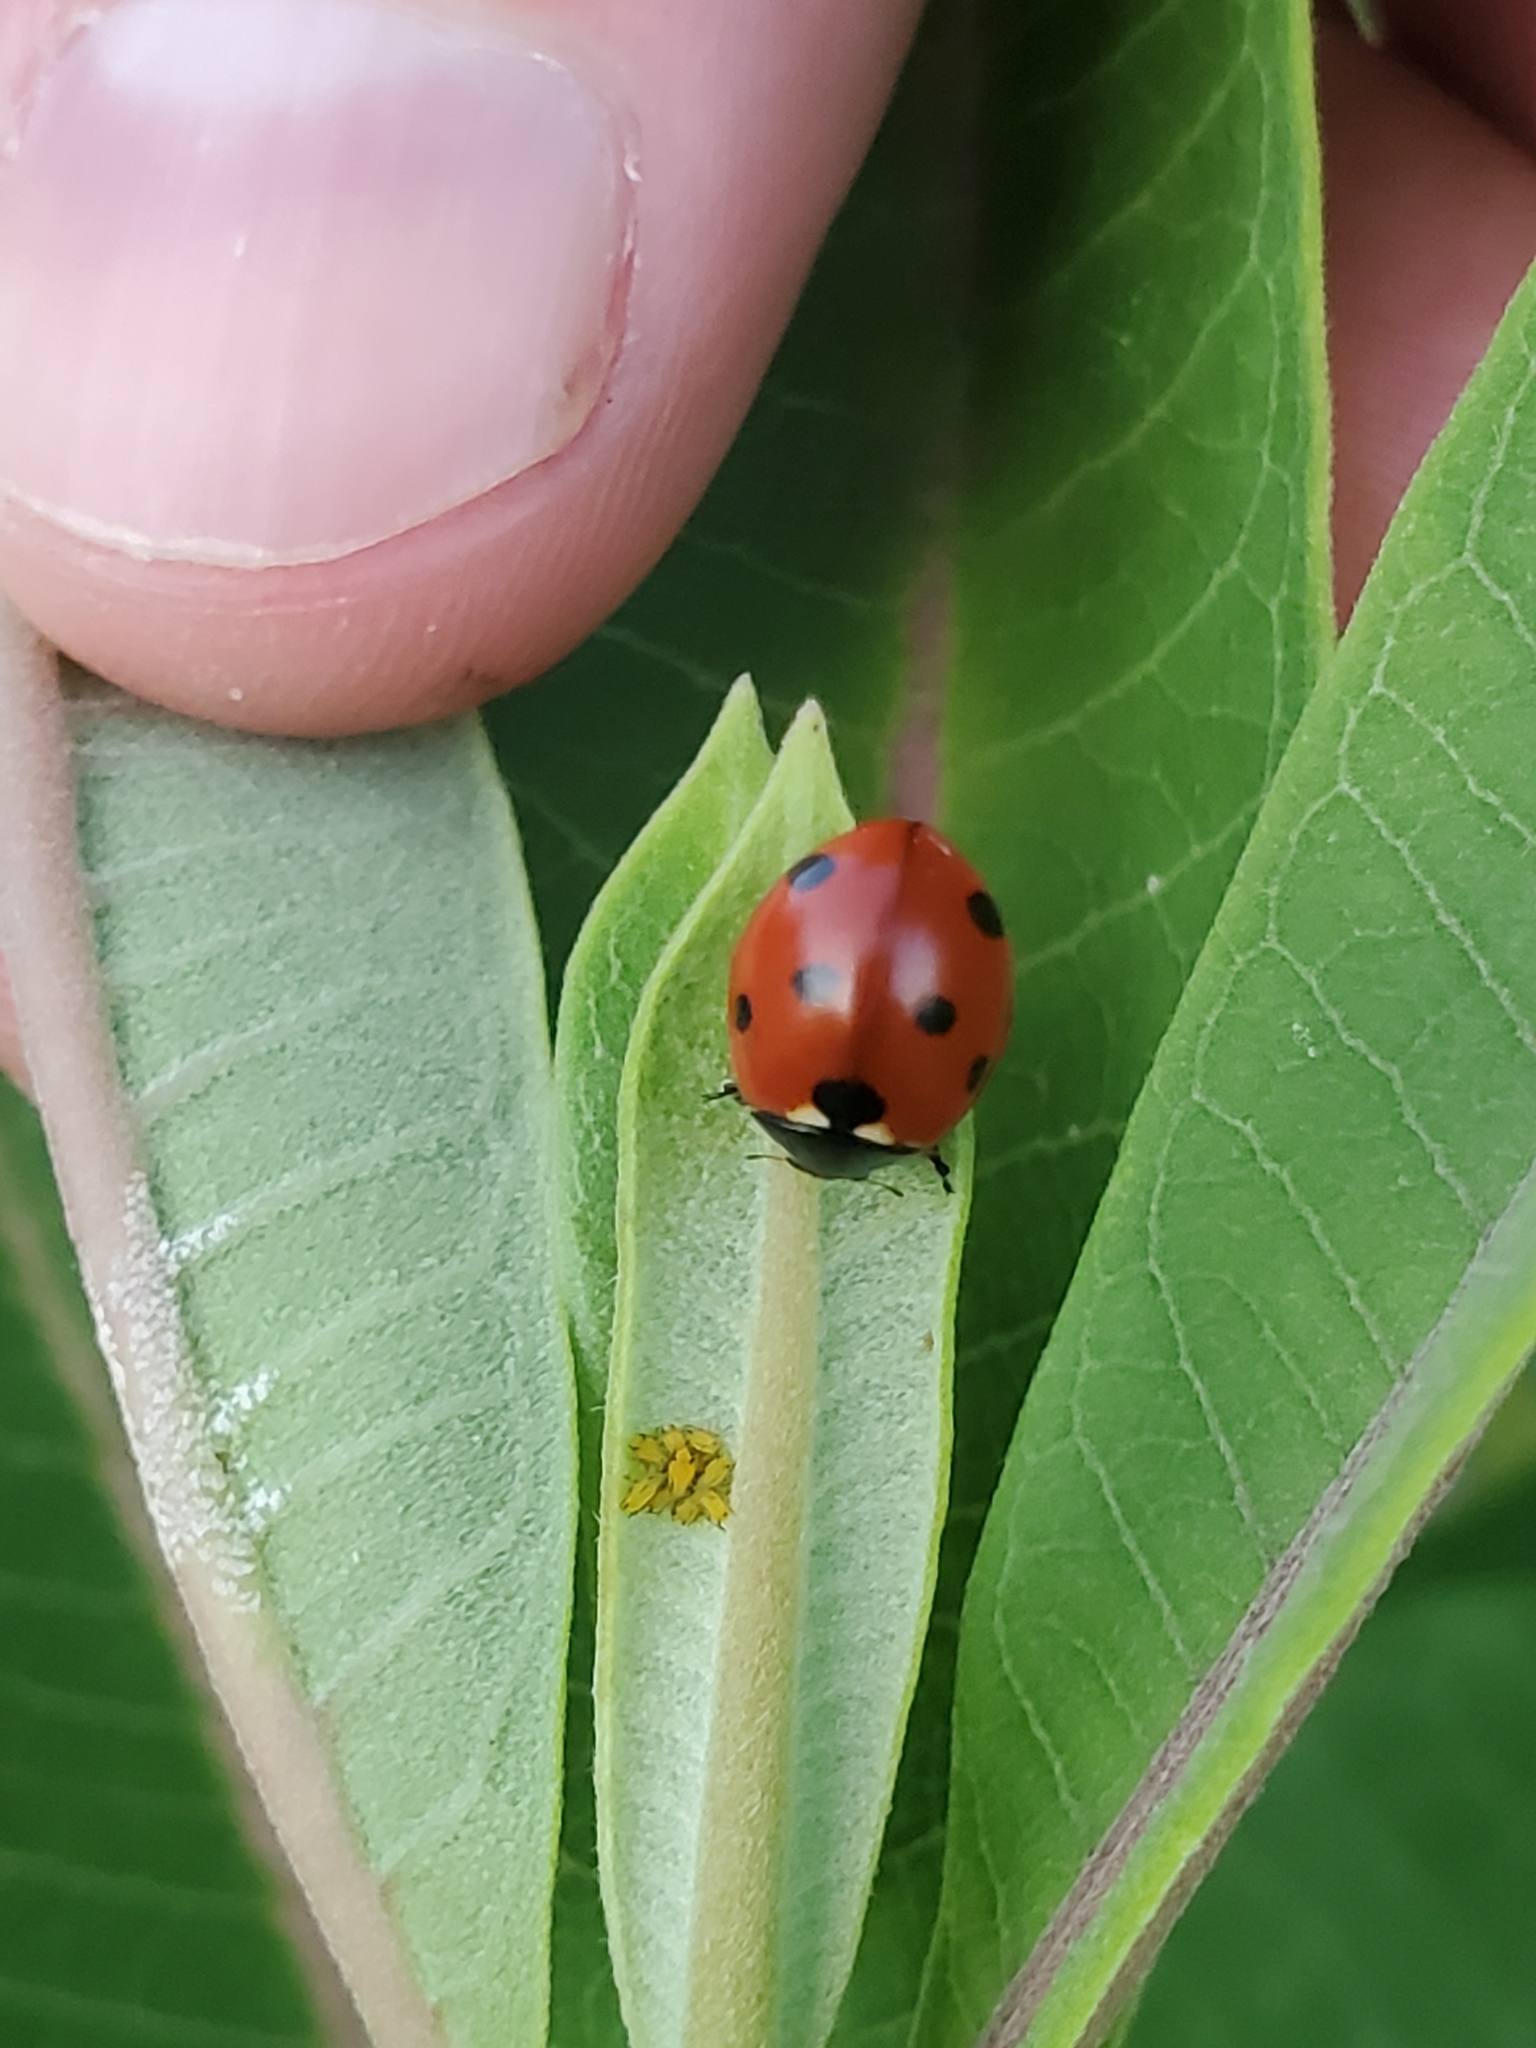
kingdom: Animalia
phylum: Arthropoda
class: Insecta
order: Coleoptera
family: Coccinellidae
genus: Coccinella
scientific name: Coccinella septempunctata
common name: Sevenspotted lady beetle
